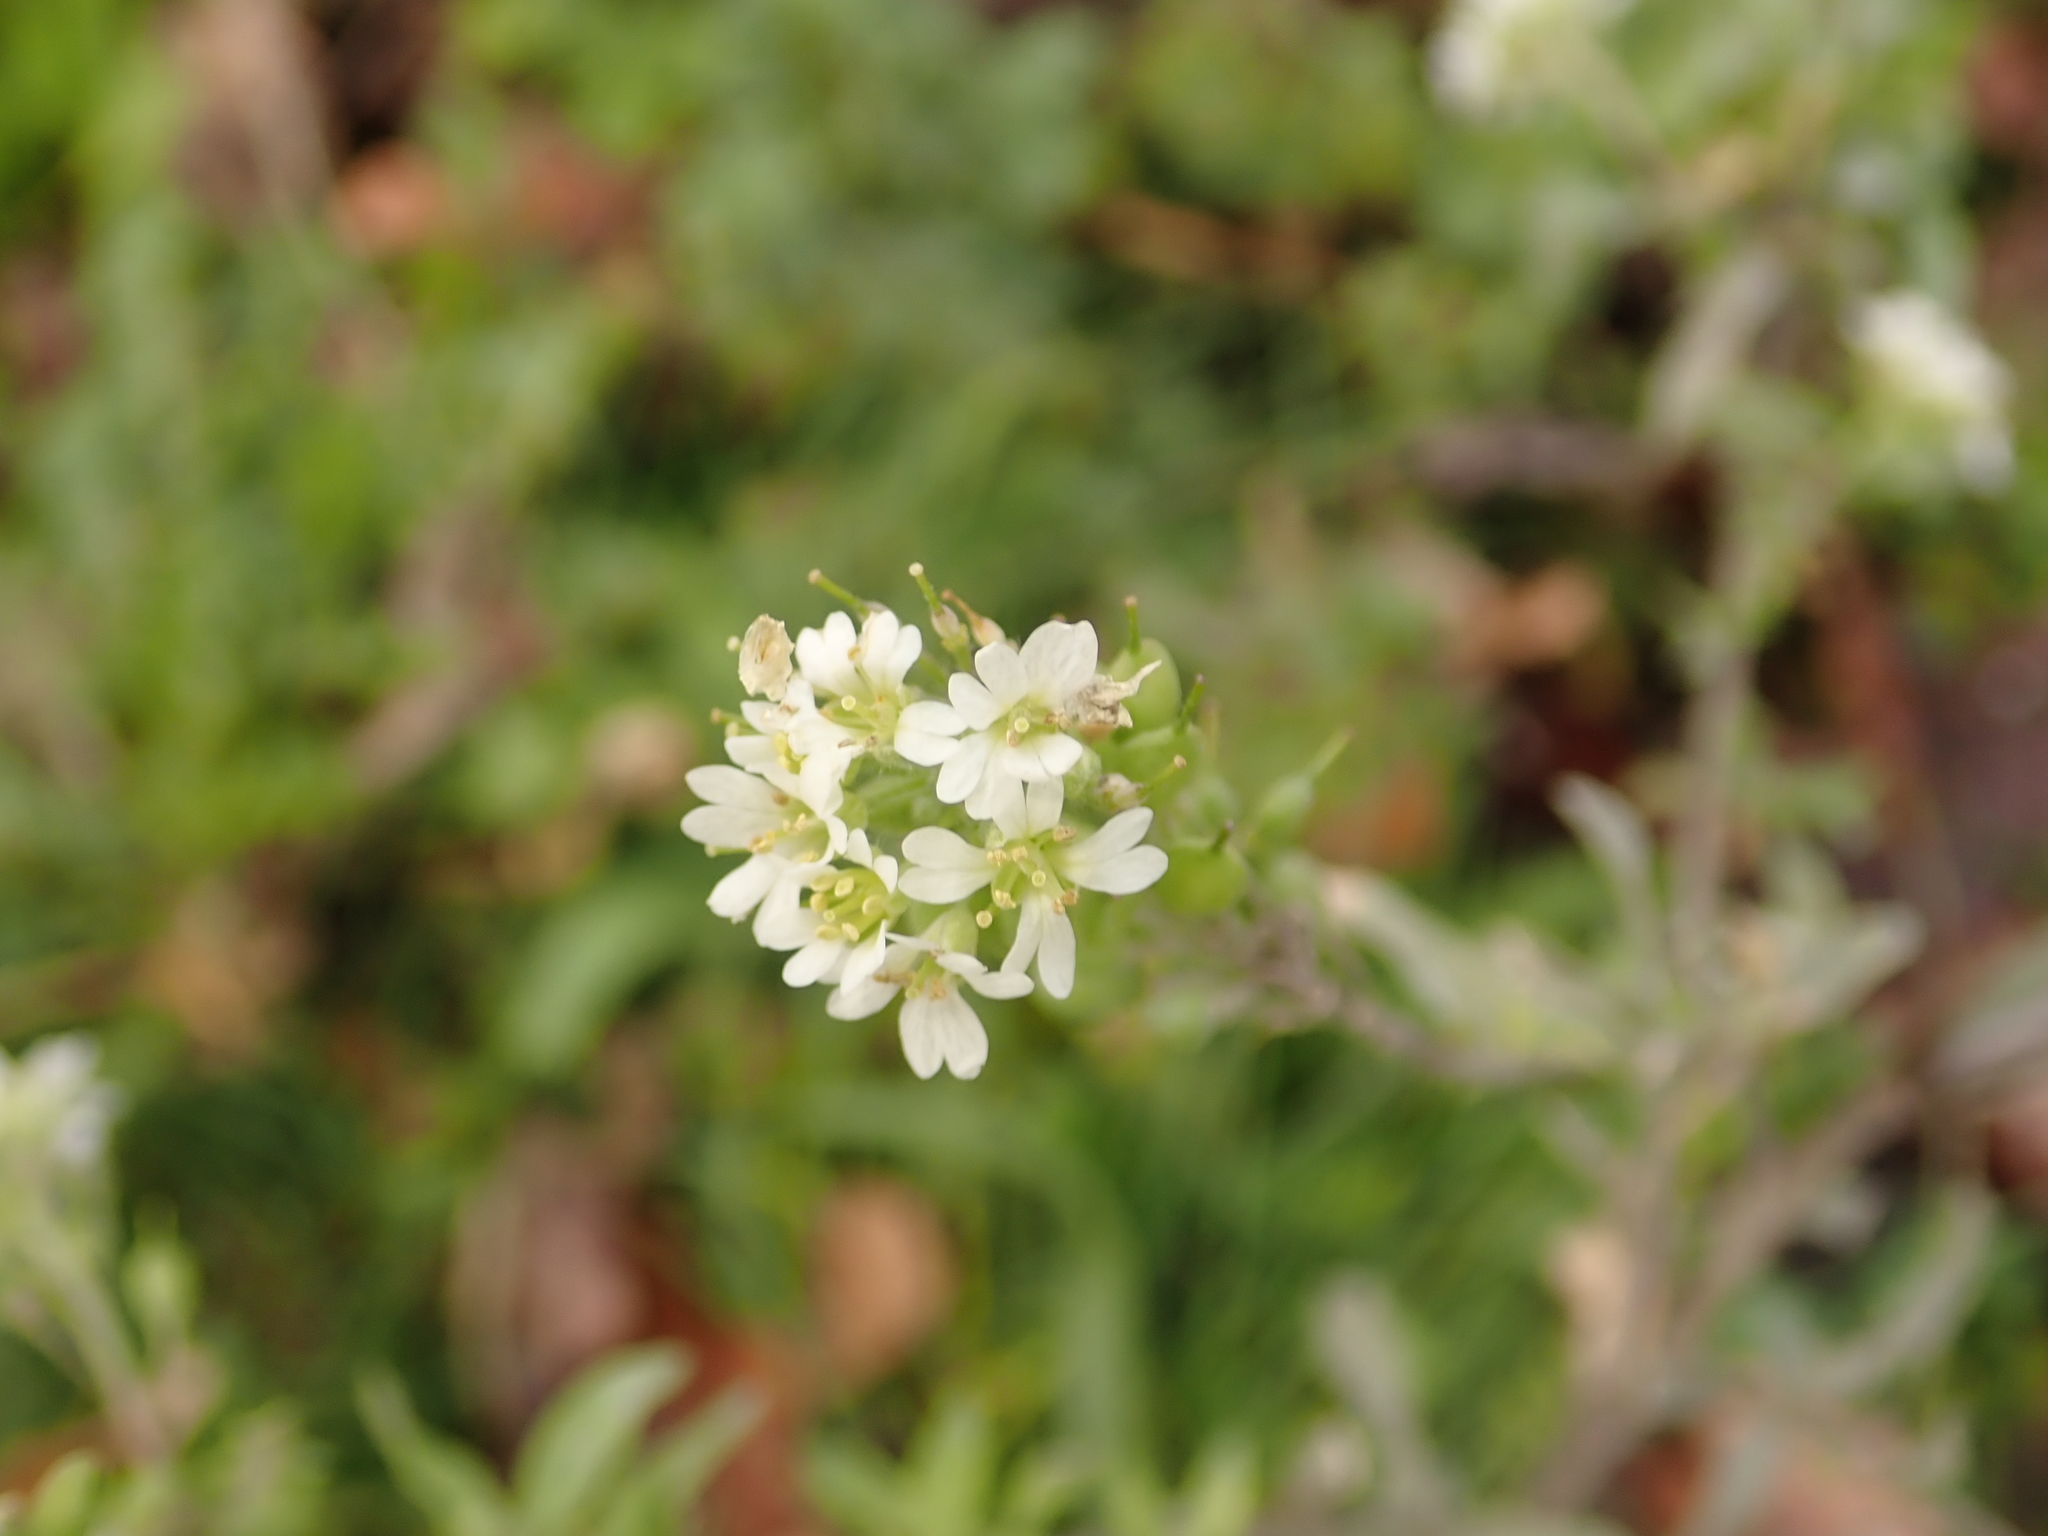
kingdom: Plantae
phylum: Tracheophyta
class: Magnoliopsida
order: Brassicales
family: Brassicaceae
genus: Berteroa
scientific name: Berteroa incana
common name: Hoary alison
